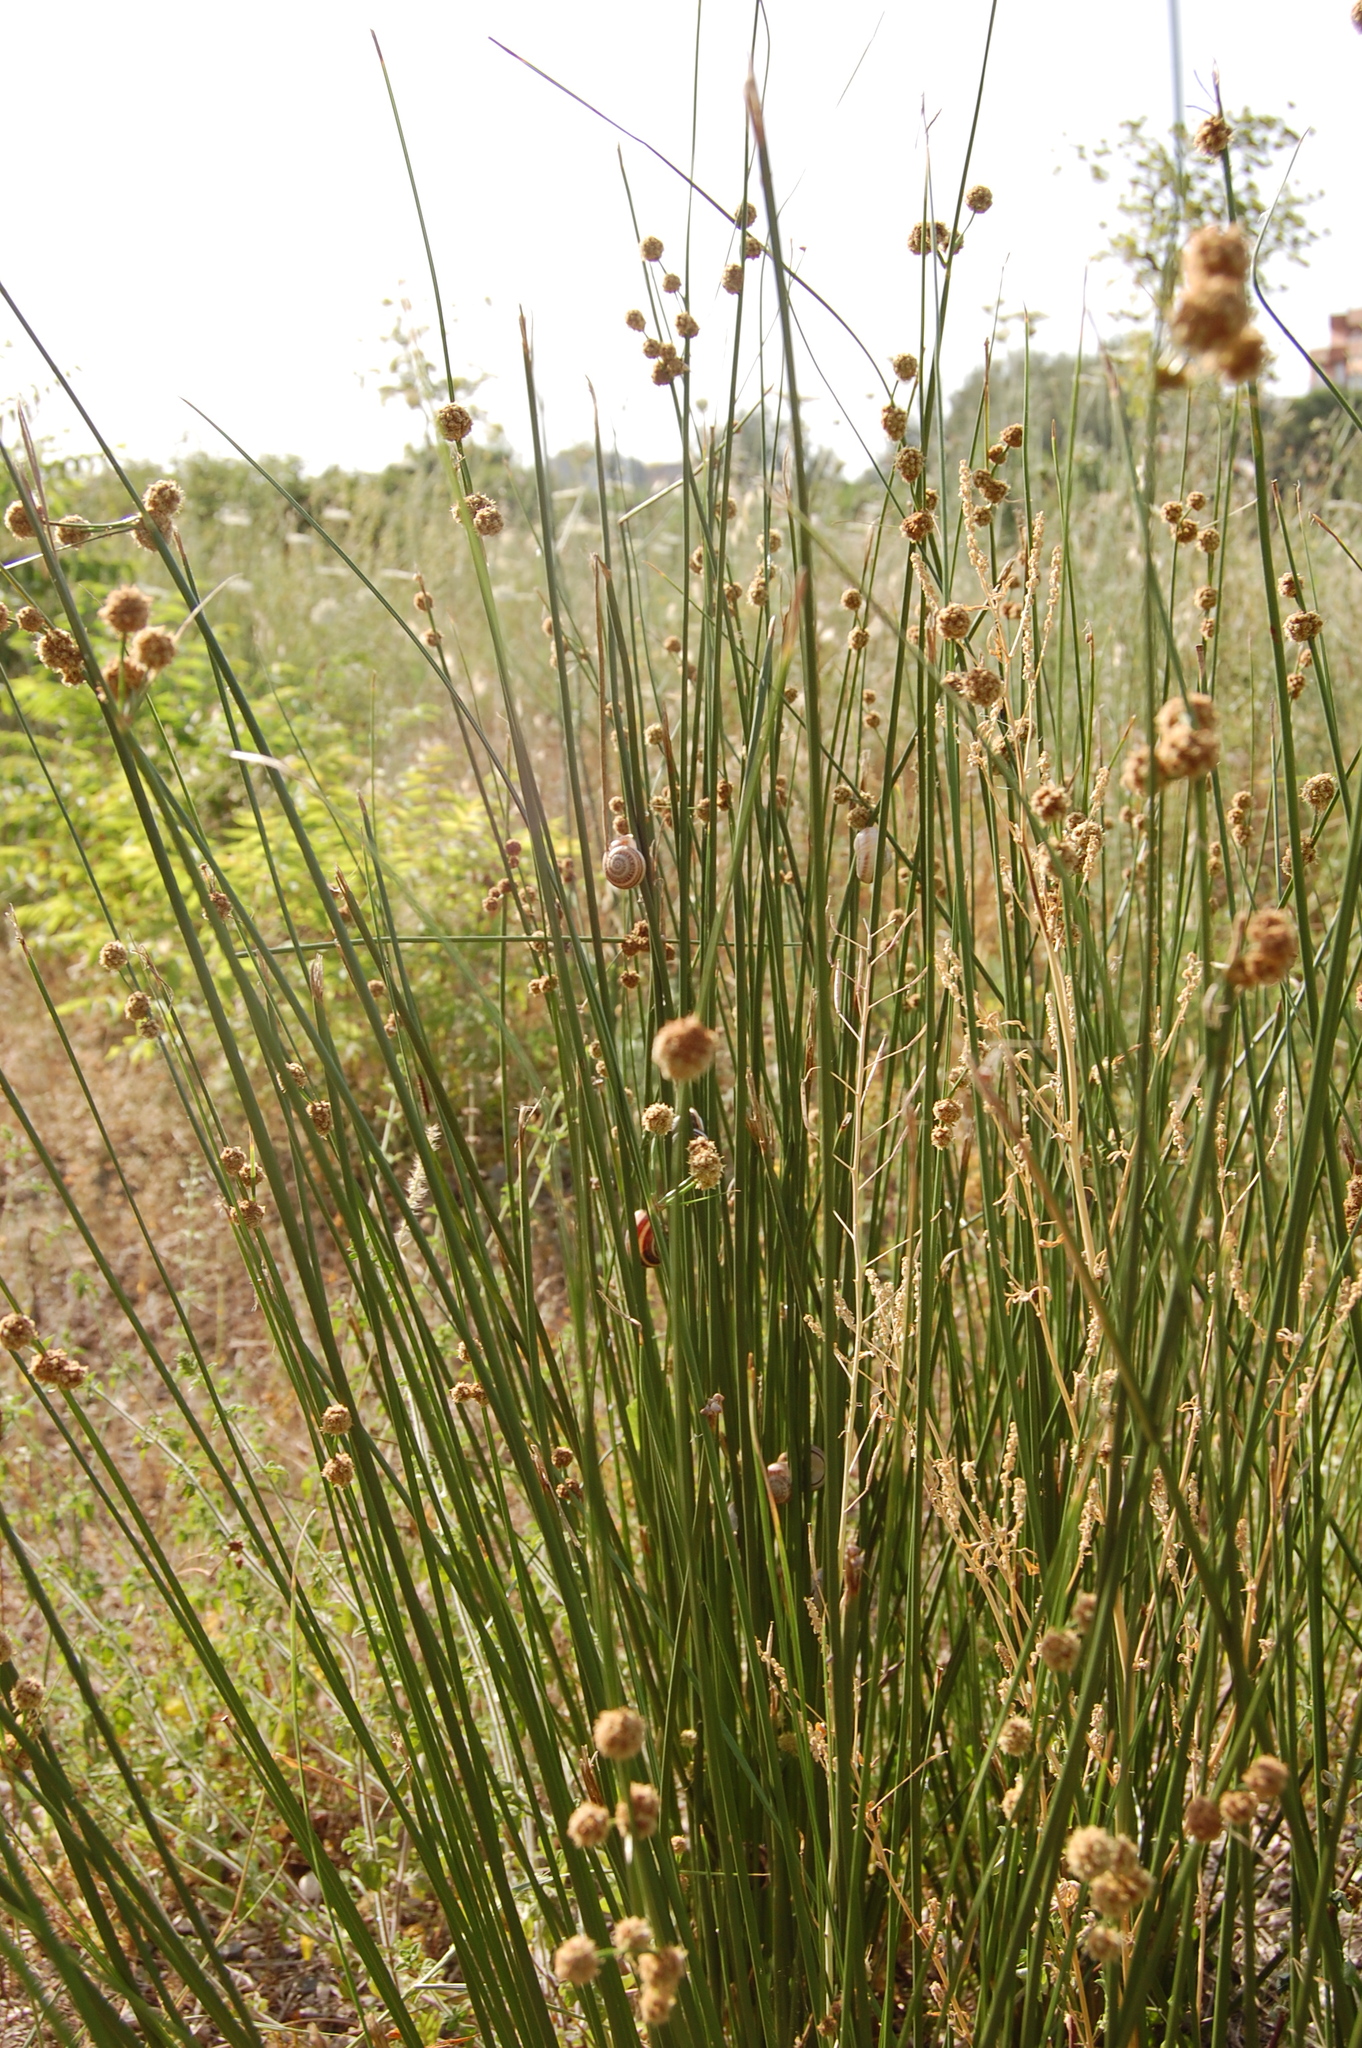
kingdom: Plantae
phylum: Tracheophyta
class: Liliopsida
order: Poales
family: Cyperaceae
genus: Scirpoides
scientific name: Scirpoides holoschoenus
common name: Round-headed club-rush
